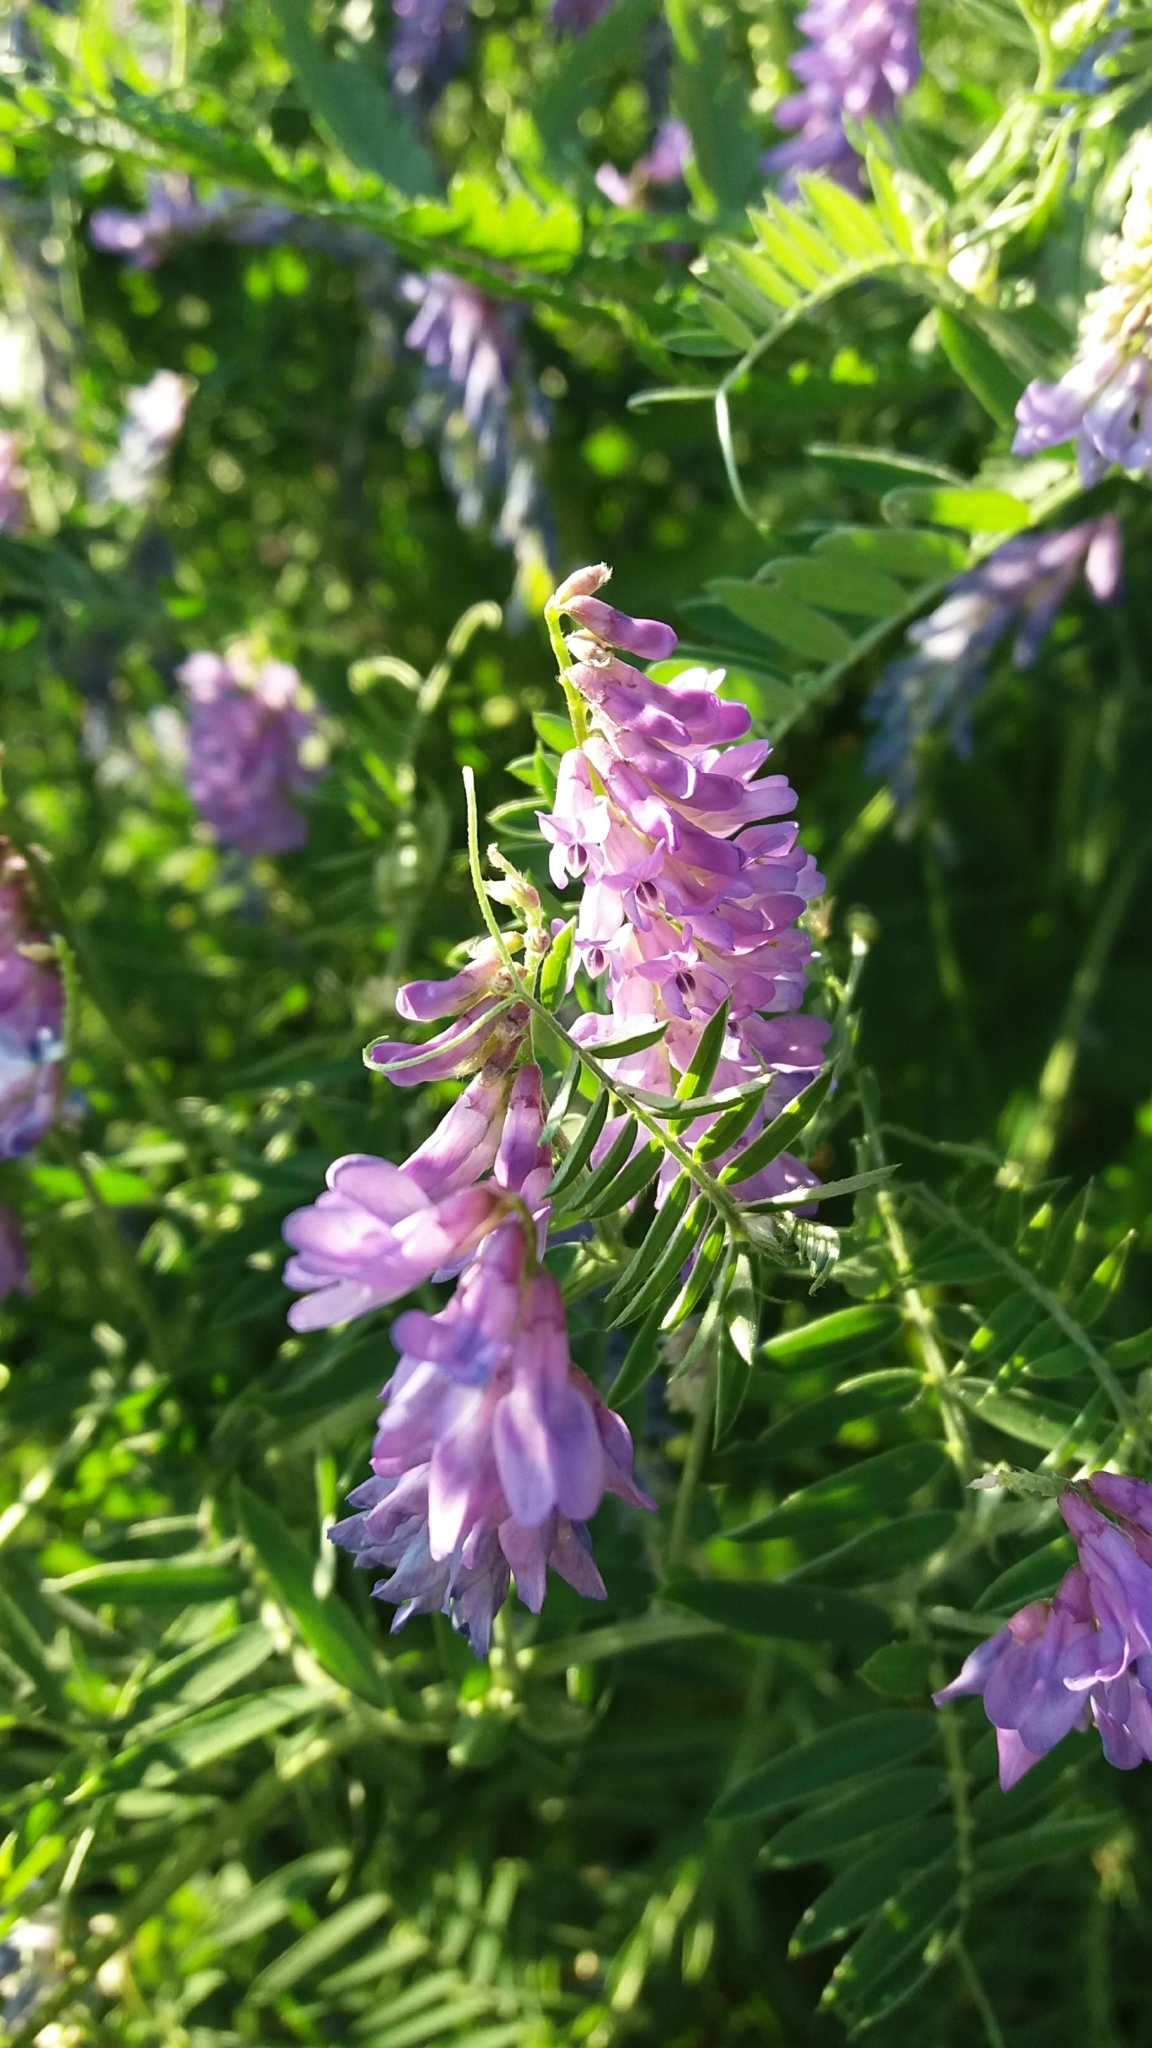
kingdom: Plantae
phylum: Tracheophyta
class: Magnoliopsida
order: Fabales
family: Fabaceae
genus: Vicia
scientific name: Vicia cracca
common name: Bird vetch
